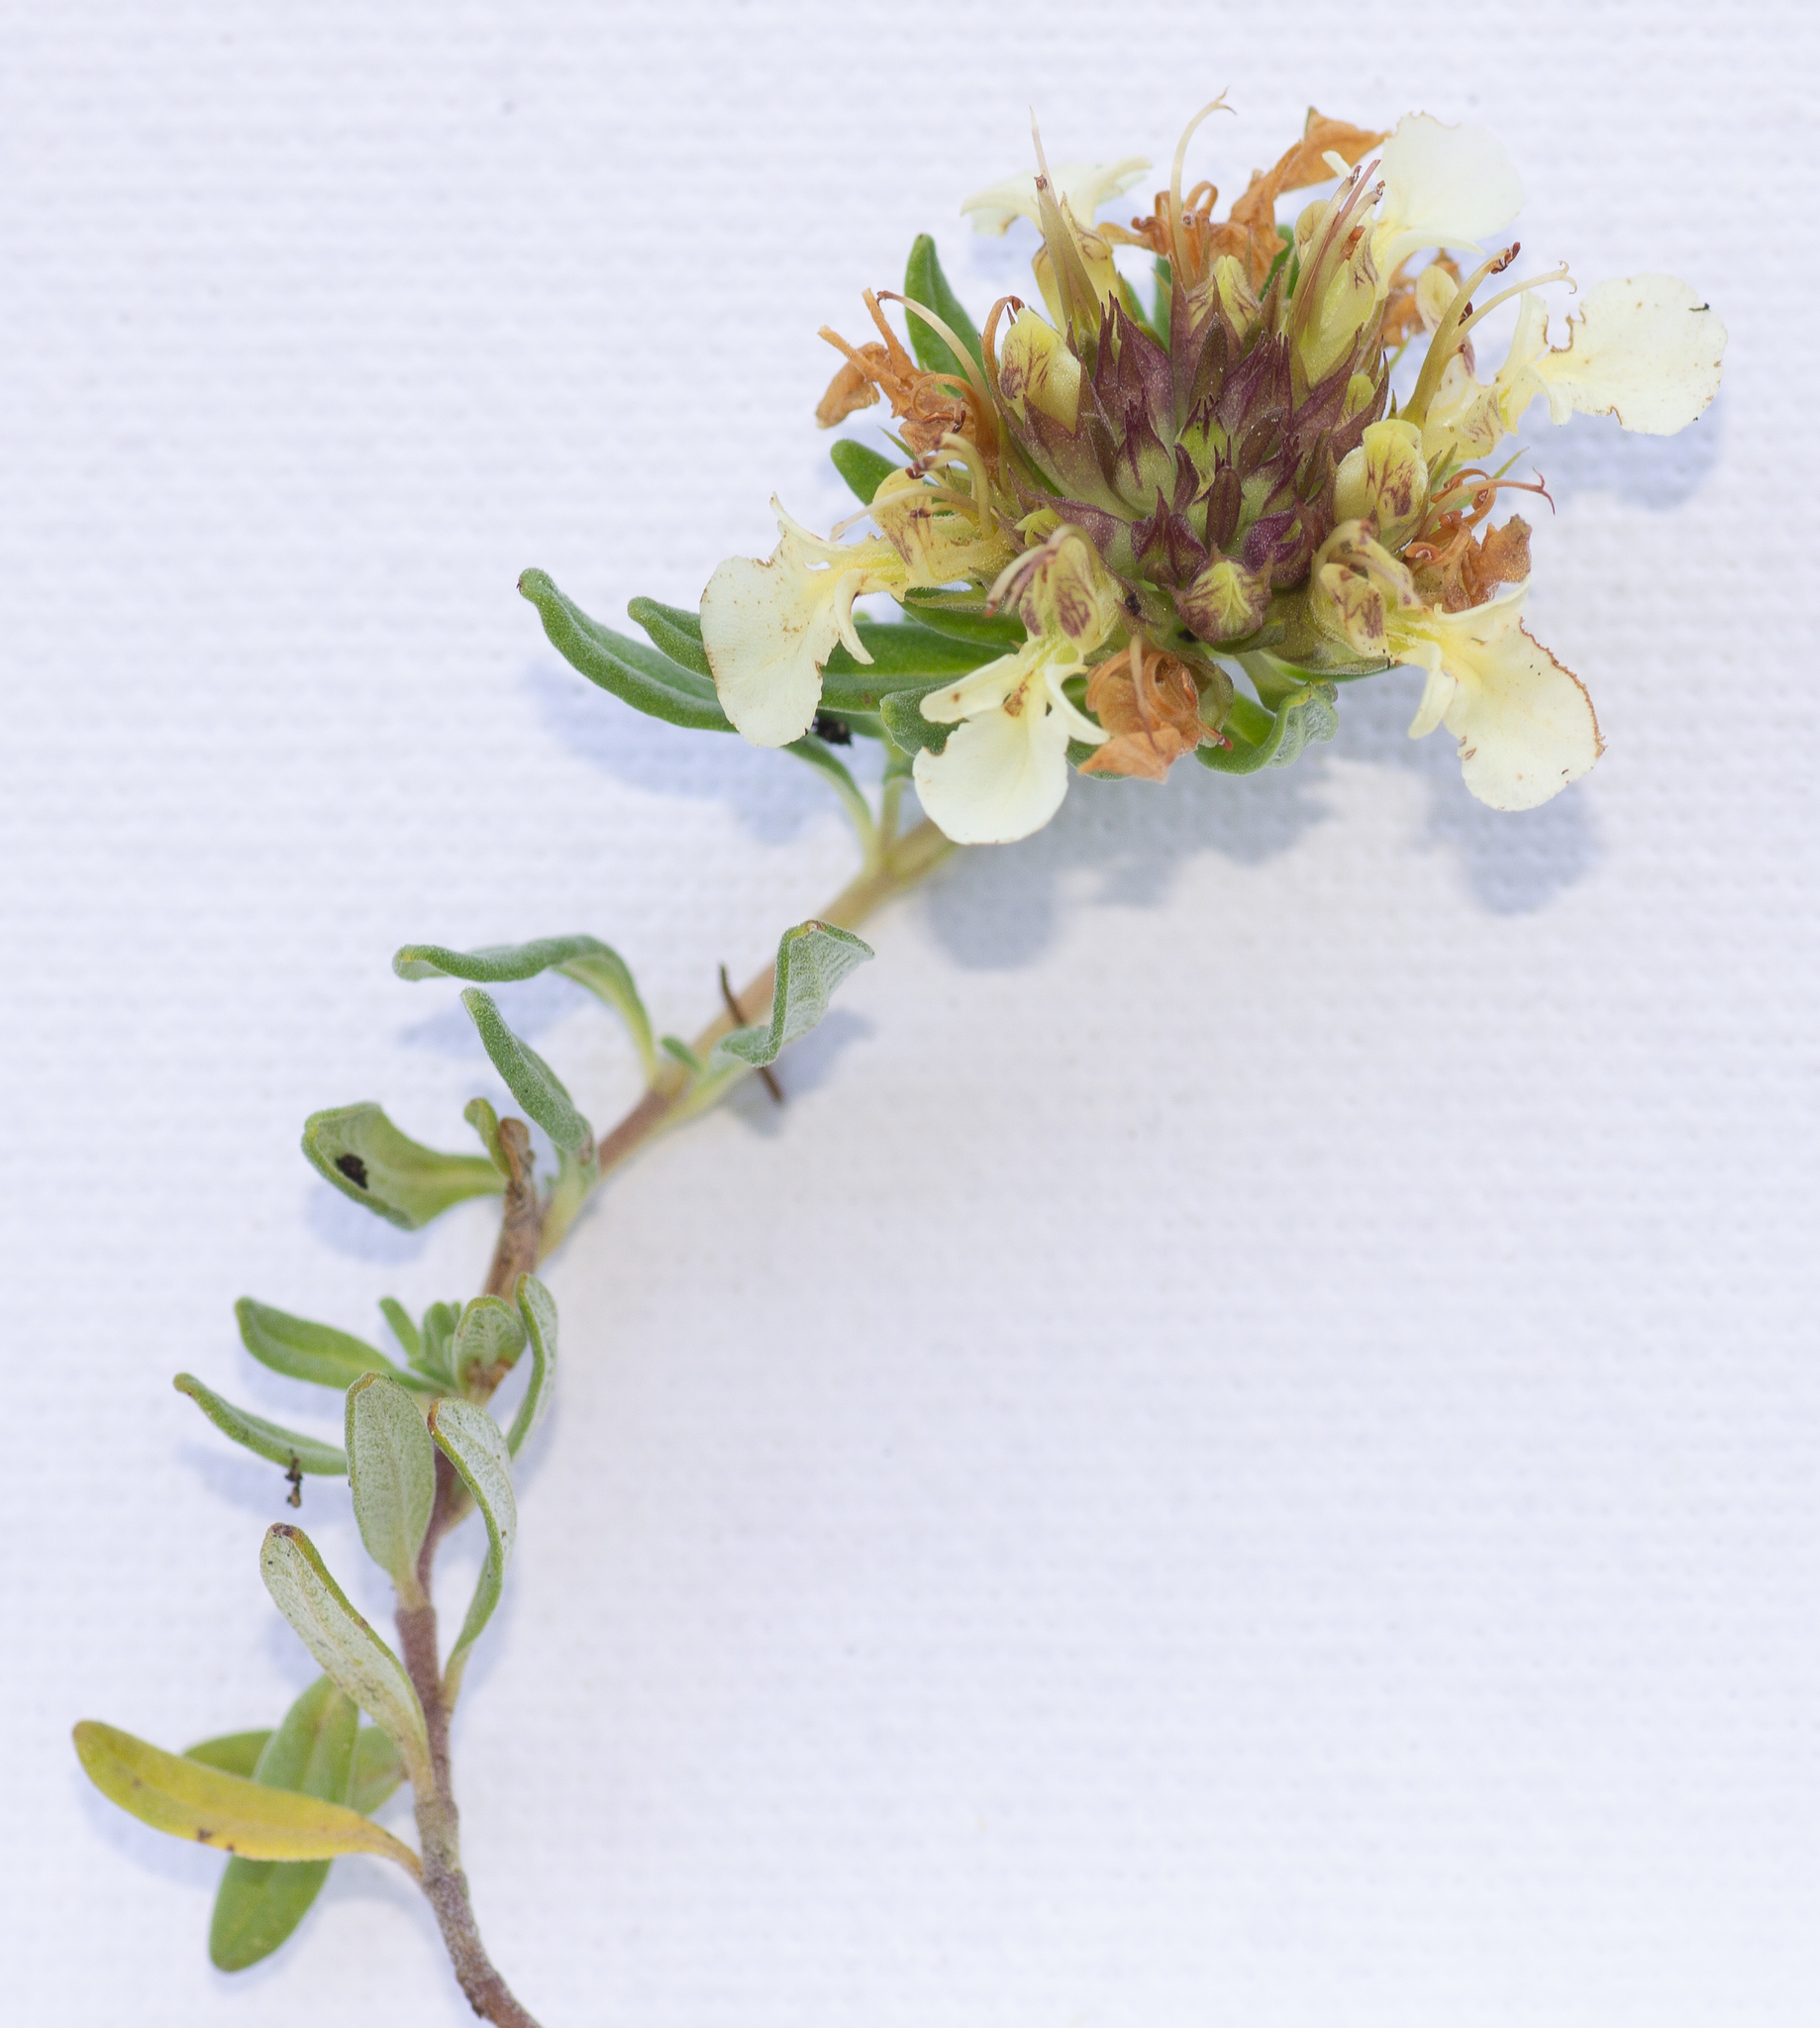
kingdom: Plantae
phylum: Tracheophyta
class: Magnoliopsida
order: Lamiales
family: Lamiaceae
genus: Teucrium
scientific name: Teucrium montanum
